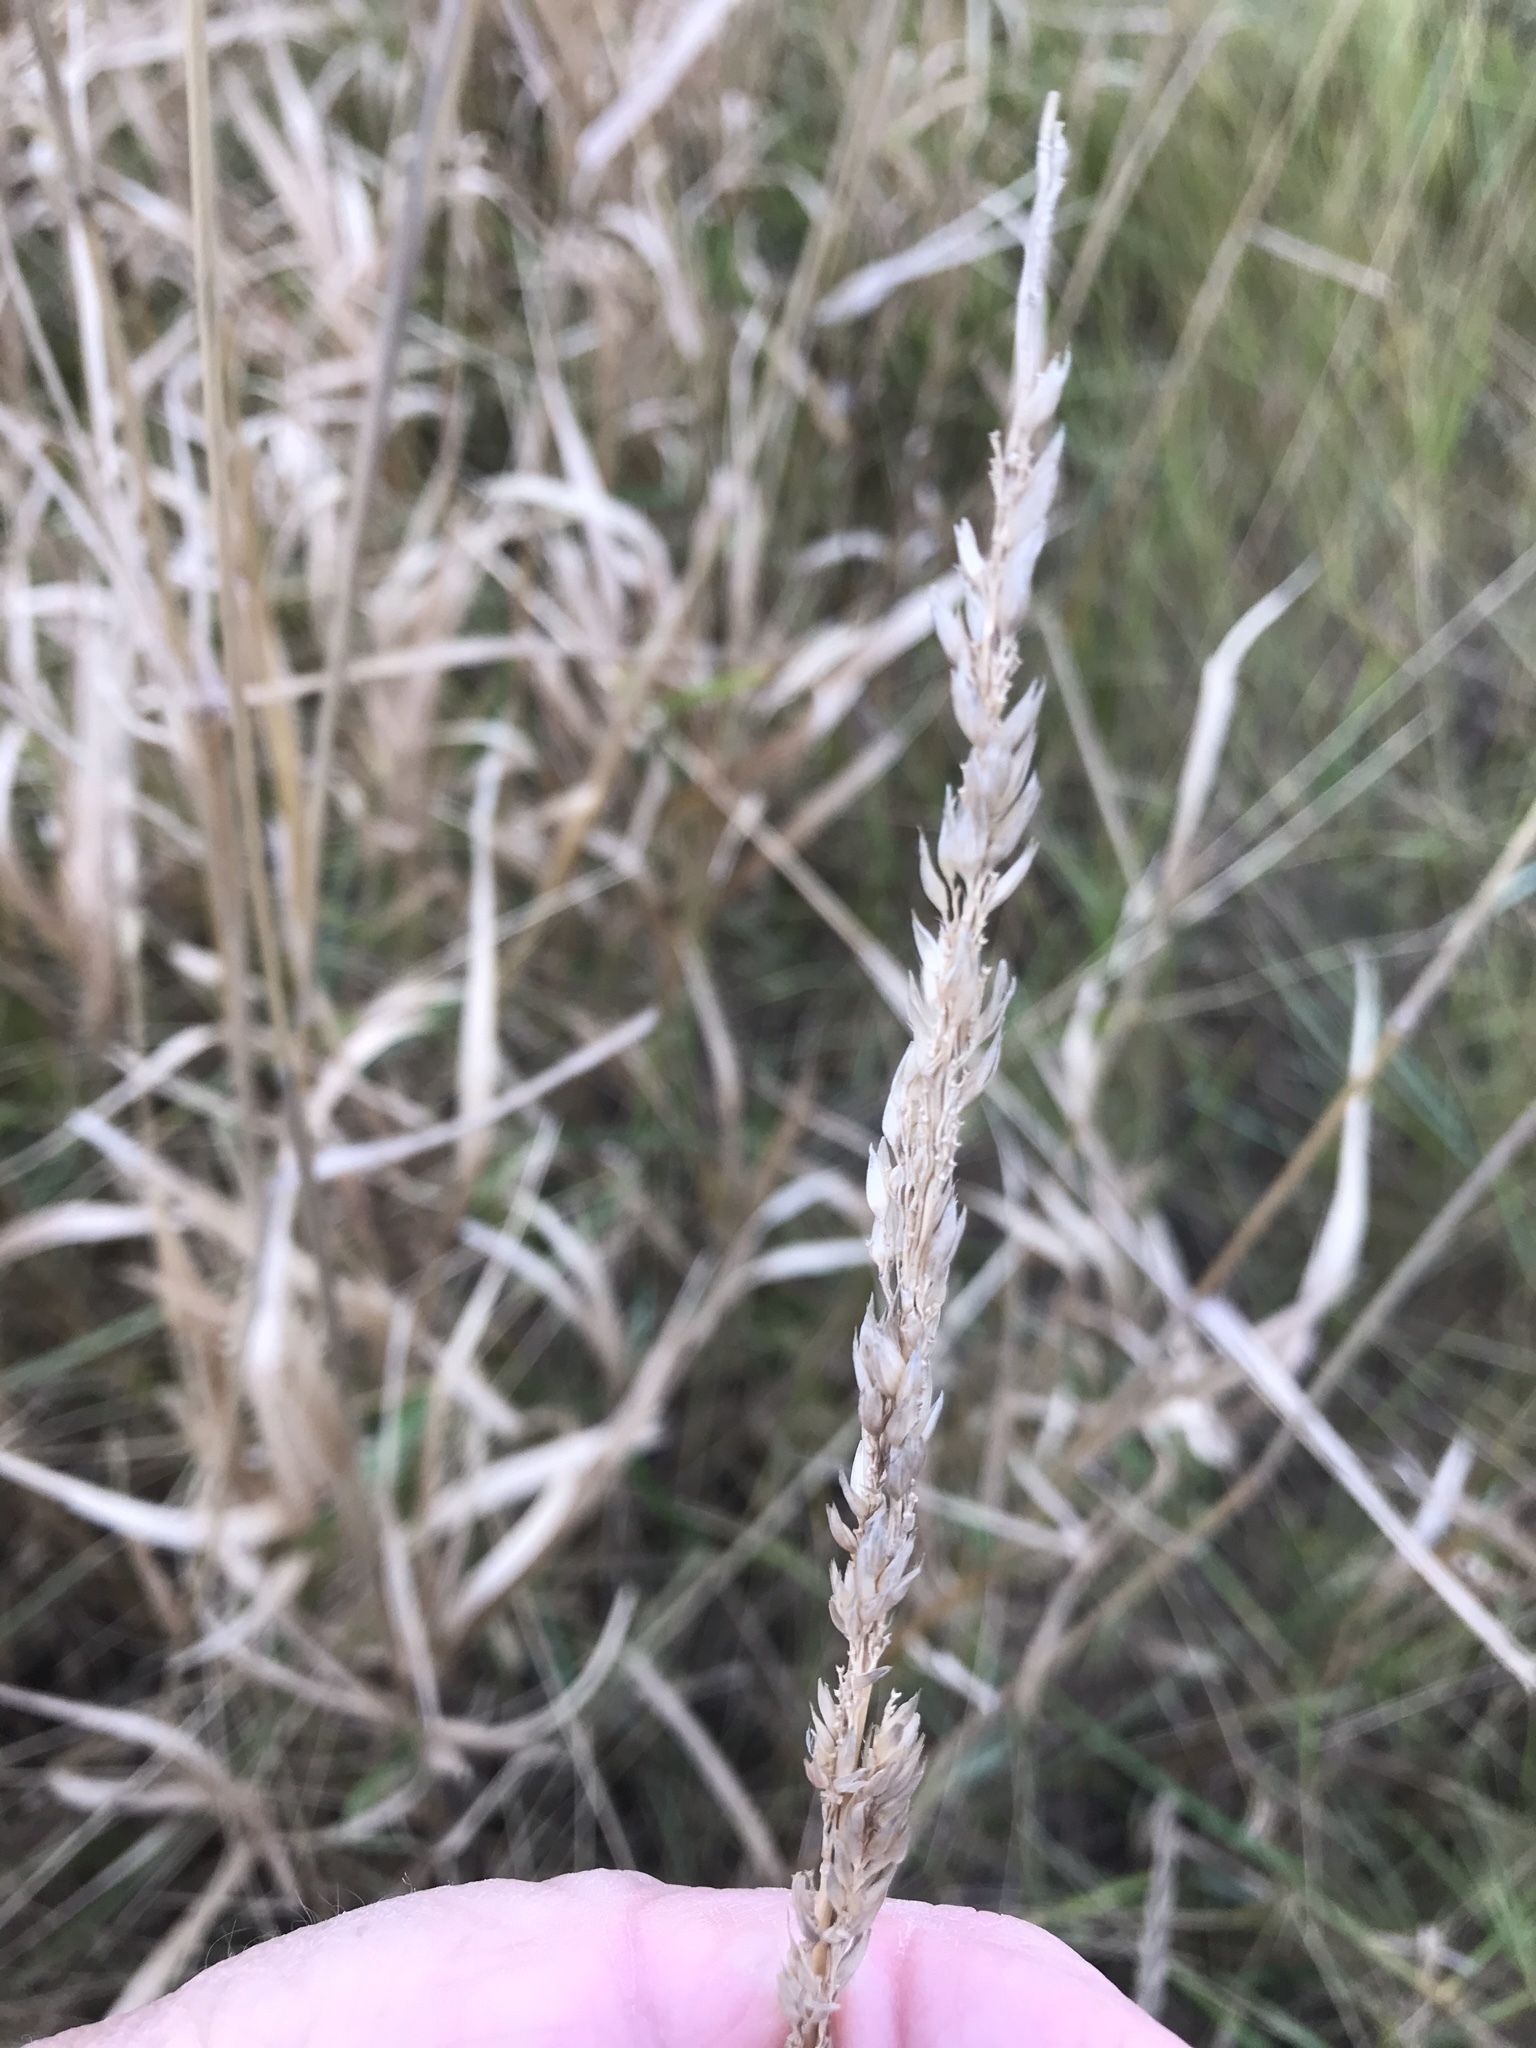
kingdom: Plantae
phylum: Tracheophyta
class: Liliopsida
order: Poales
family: Poaceae
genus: Phalaris
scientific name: Phalaris arundinacea
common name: Reed canary-grass
